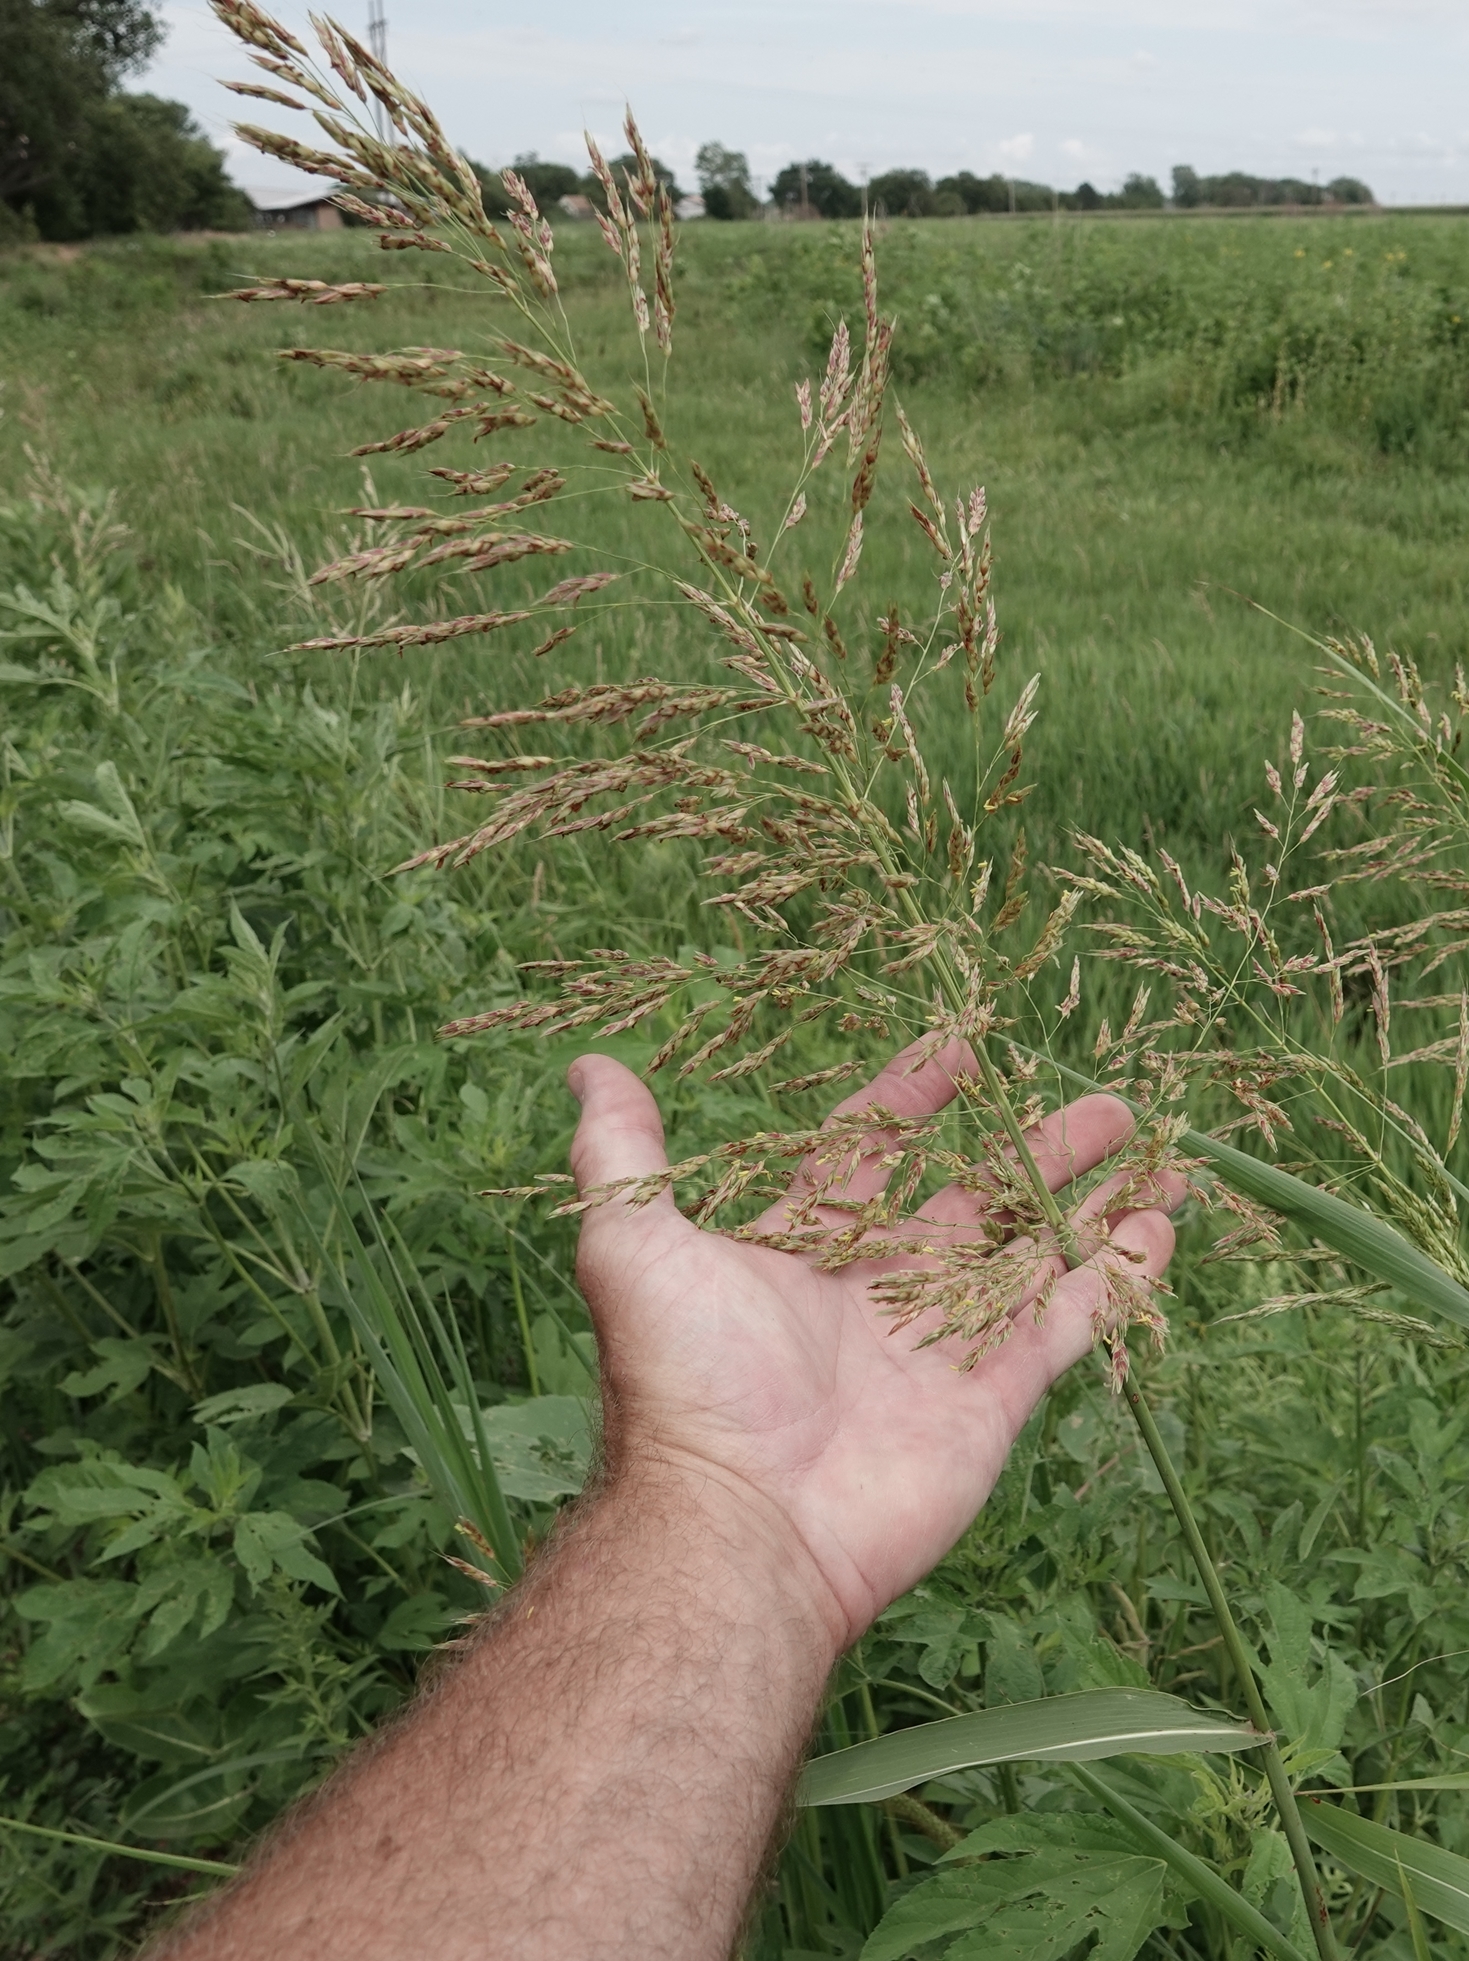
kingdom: Plantae
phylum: Tracheophyta
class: Liliopsida
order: Poales
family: Poaceae
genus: Sorghum
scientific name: Sorghum halepense
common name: Johnson-grass
